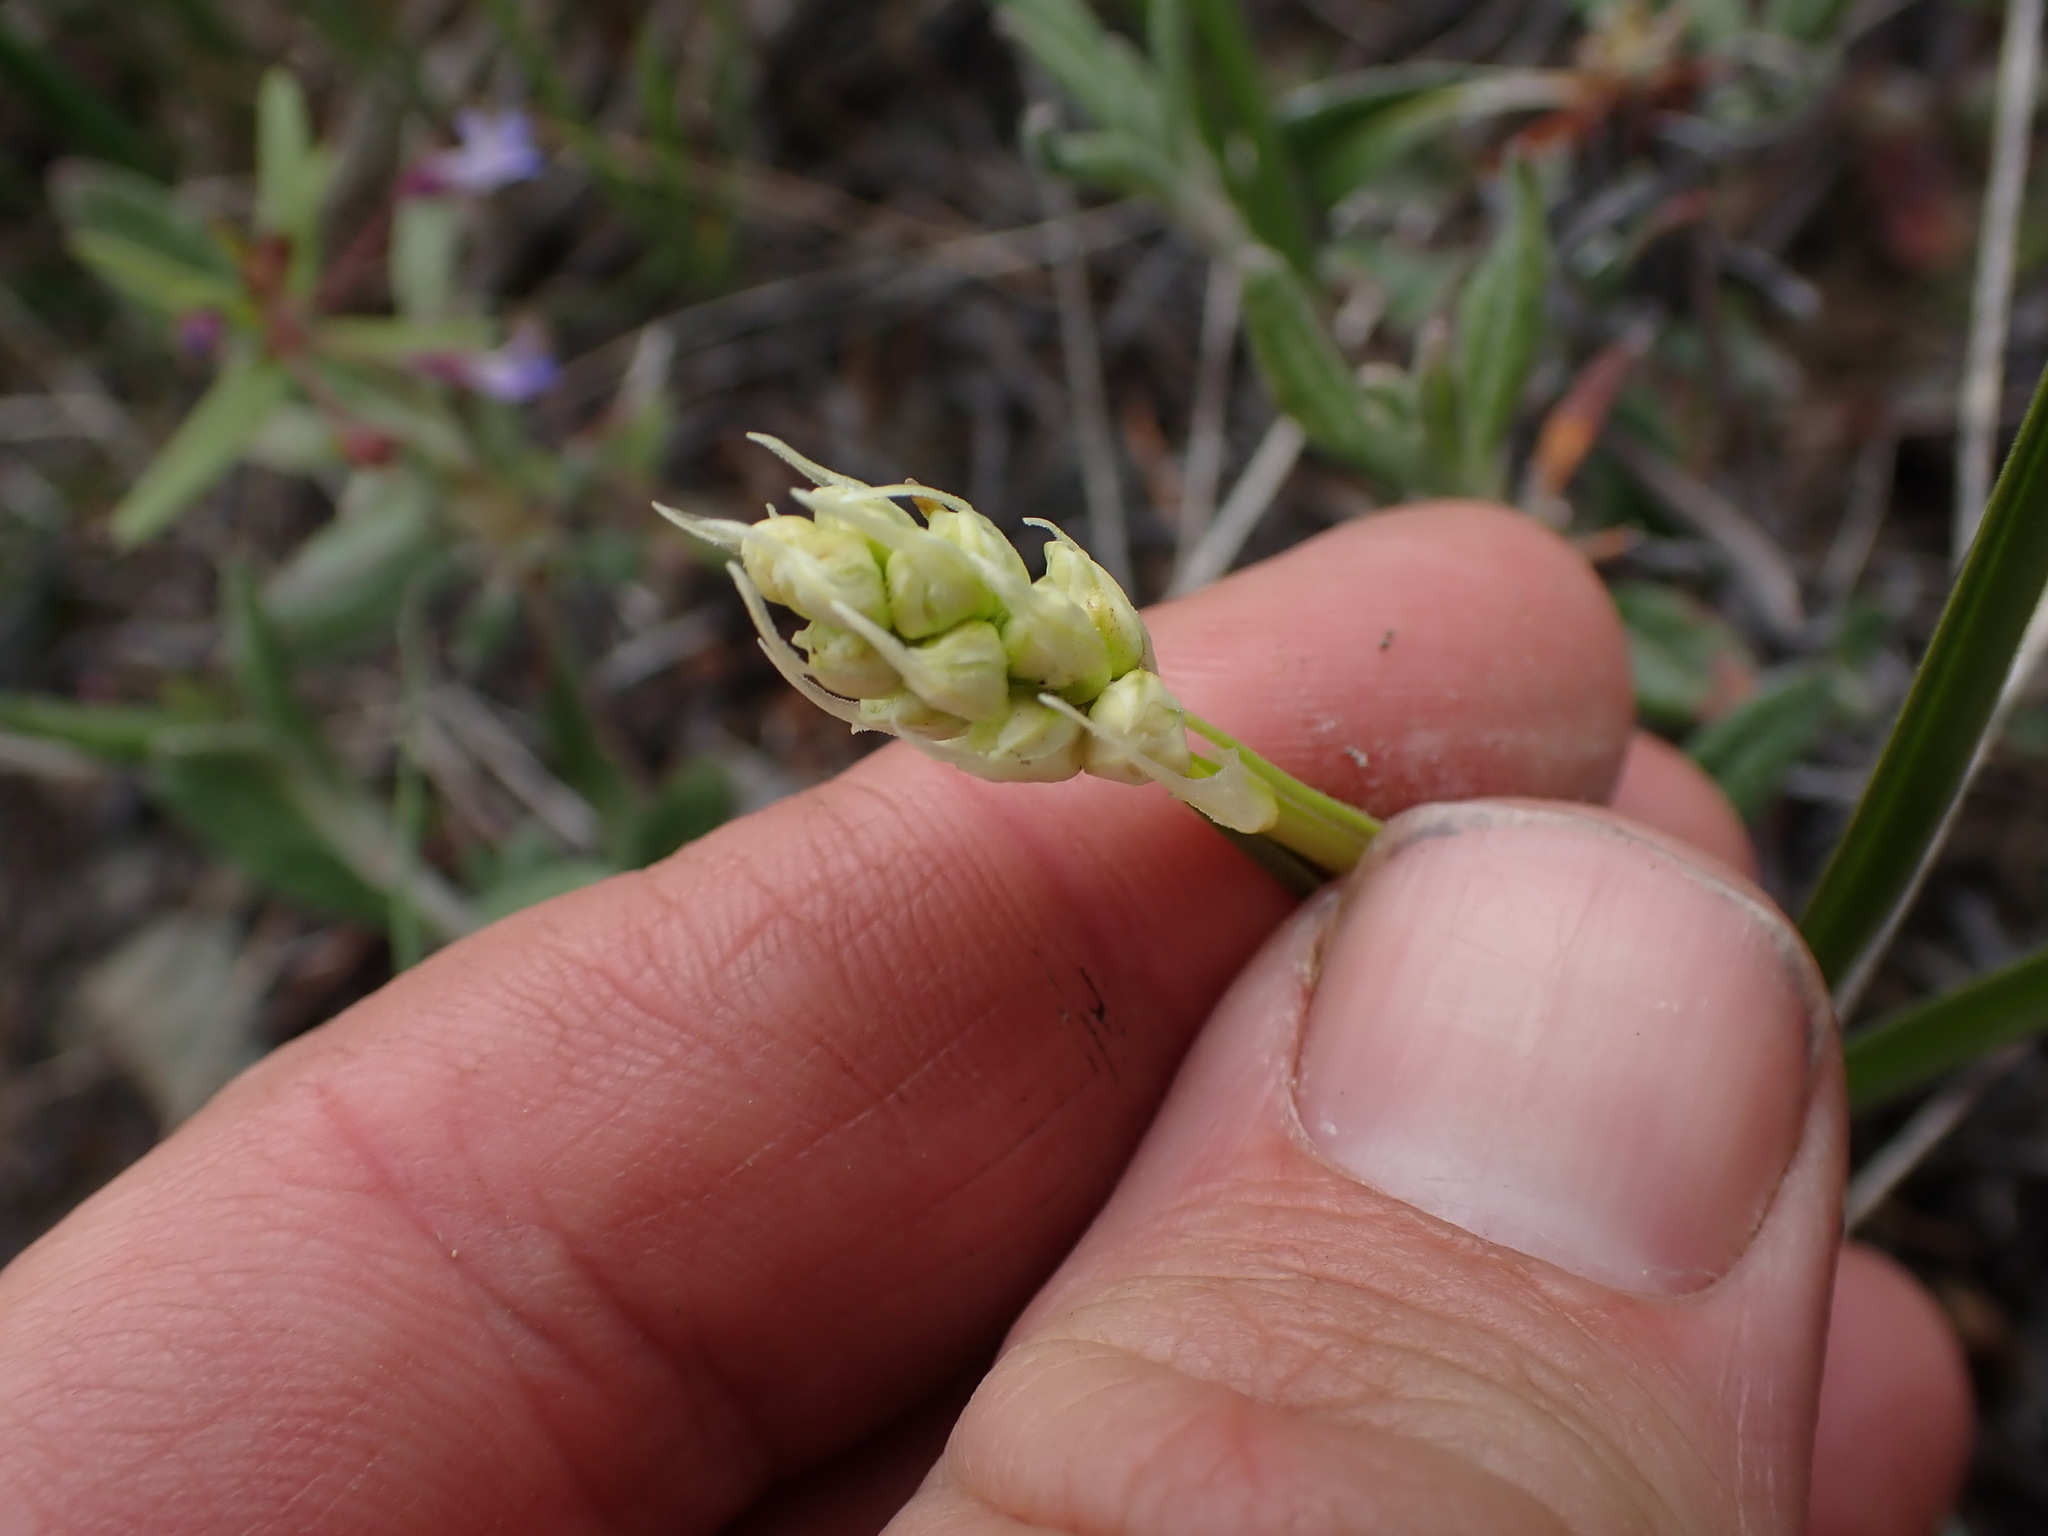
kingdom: Plantae
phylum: Tracheophyta
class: Liliopsida
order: Liliales
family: Melanthiaceae
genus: Toxicoscordion
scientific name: Toxicoscordion venenosum
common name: Meadow death camas
